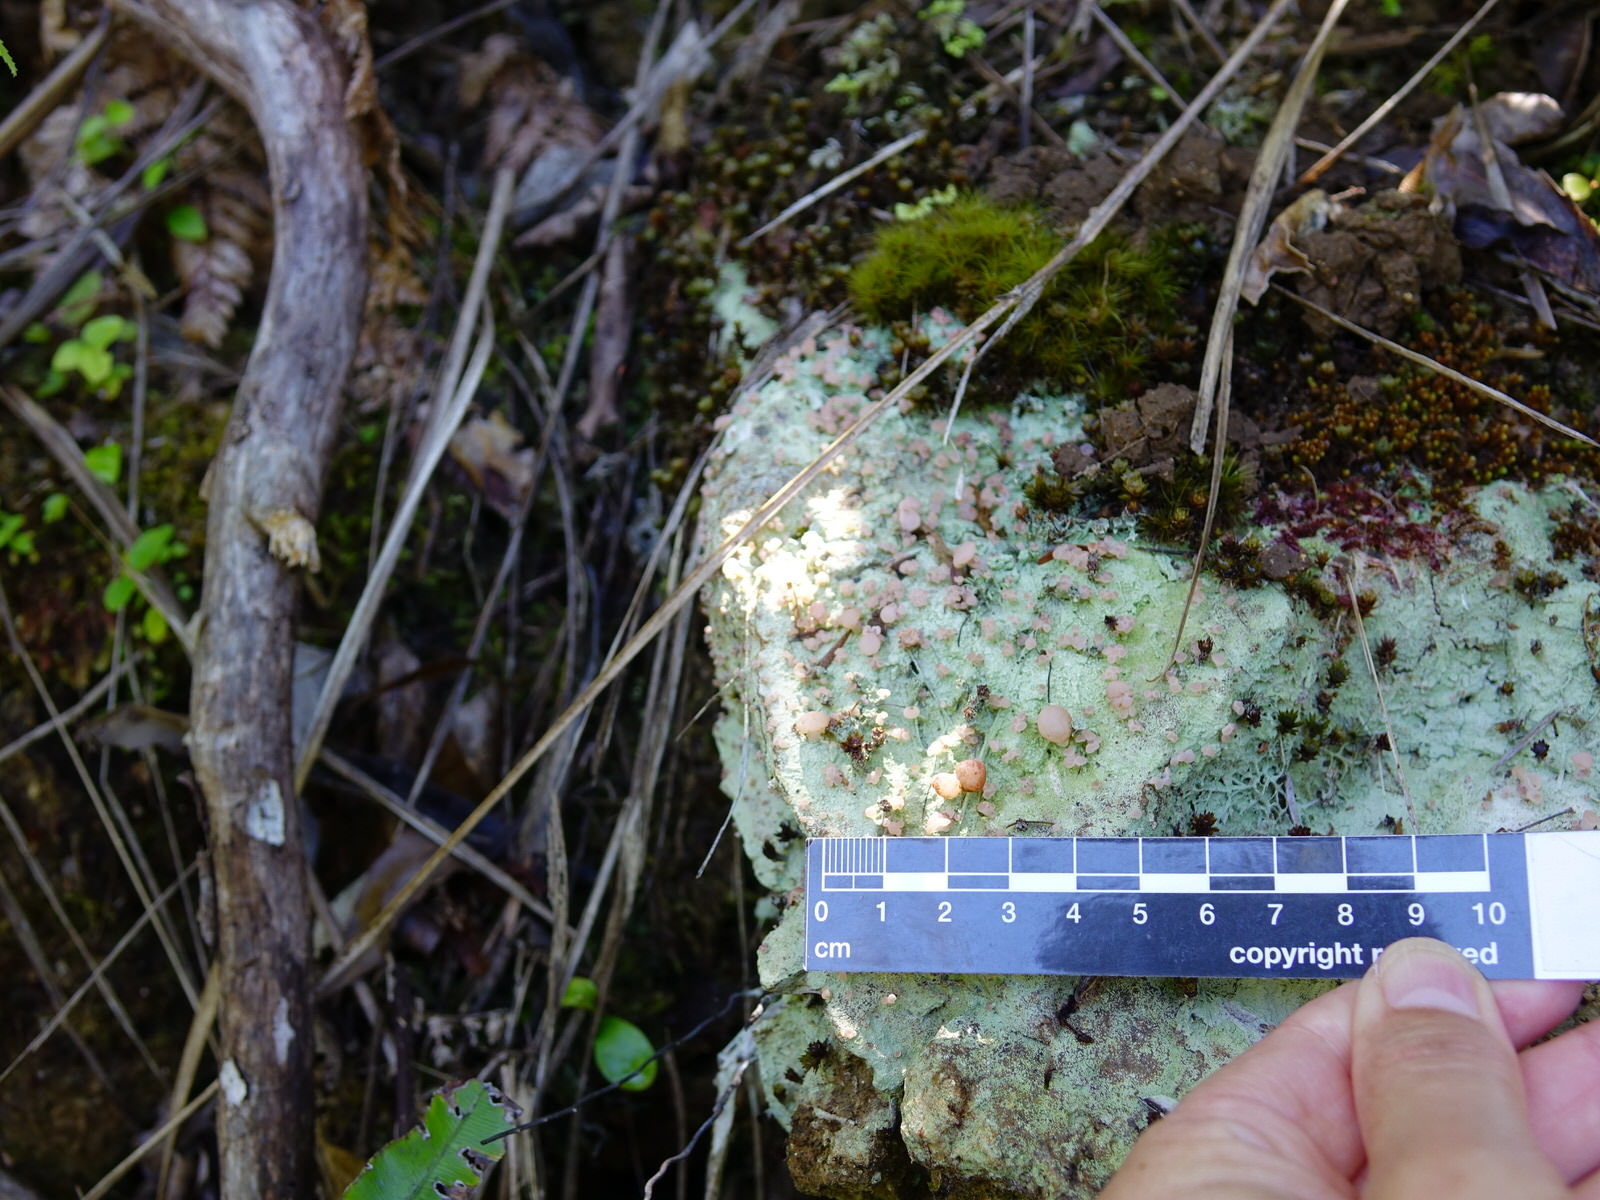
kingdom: Fungi
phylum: Ascomycota
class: Lecanoromycetes
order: Baeomycetales
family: Baeomycetaceae
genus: Baeomyces
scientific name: Baeomyces heteromorphus
